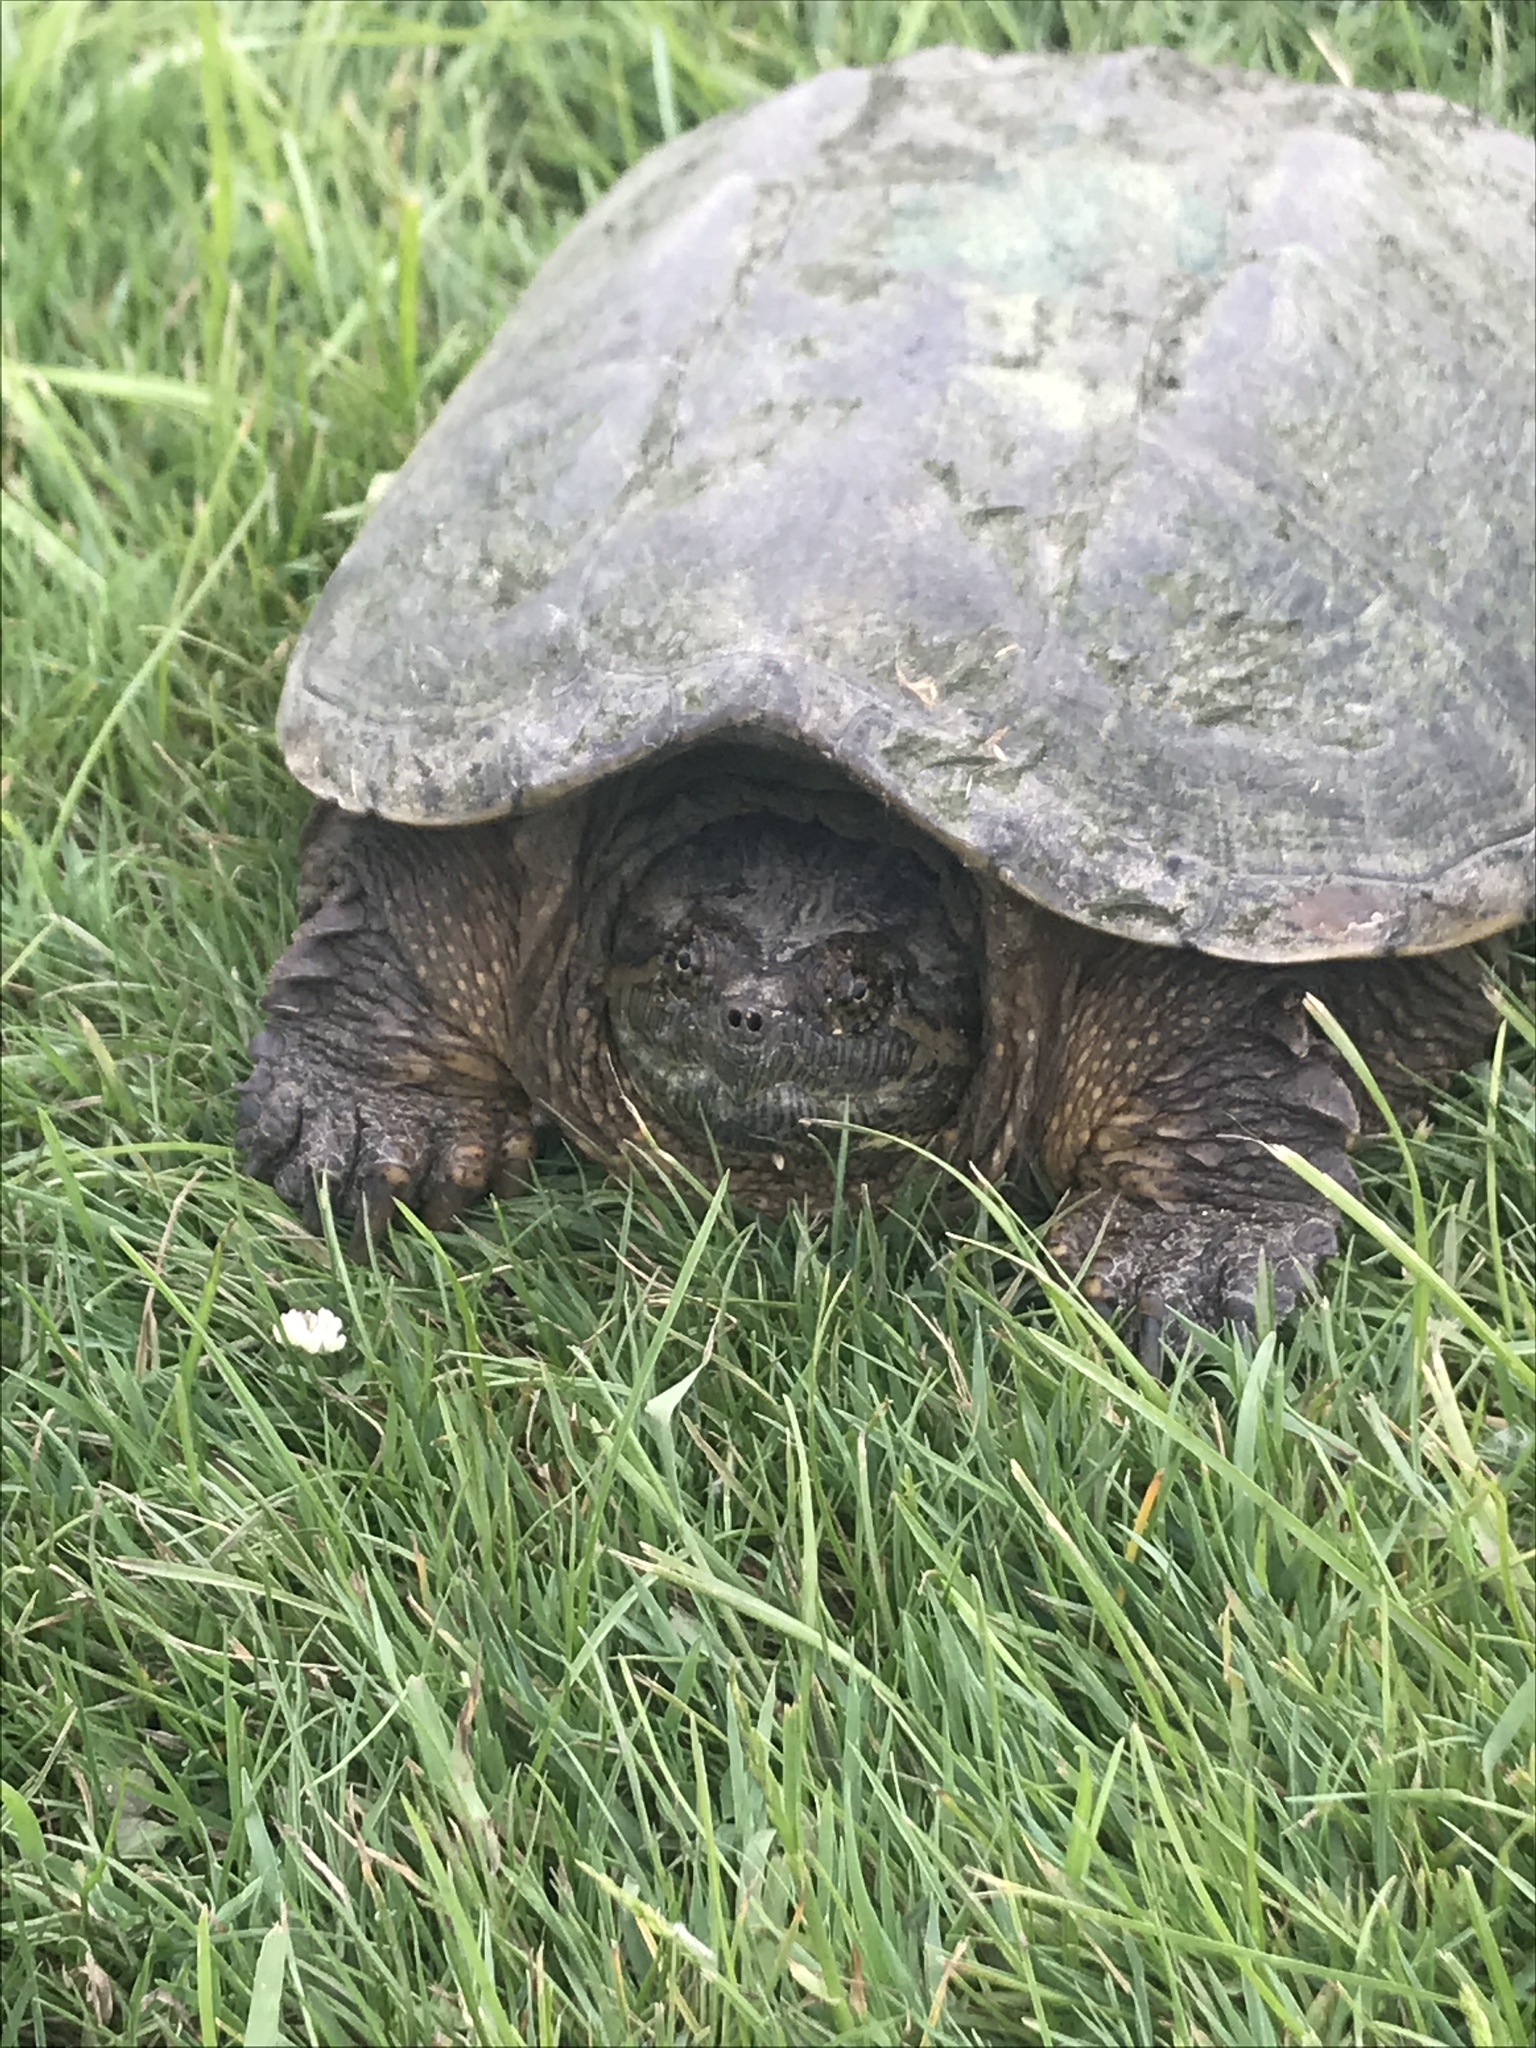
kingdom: Animalia
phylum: Chordata
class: Testudines
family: Chelydridae
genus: Chelydra
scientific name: Chelydra serpentina
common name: Common snapping turtle
